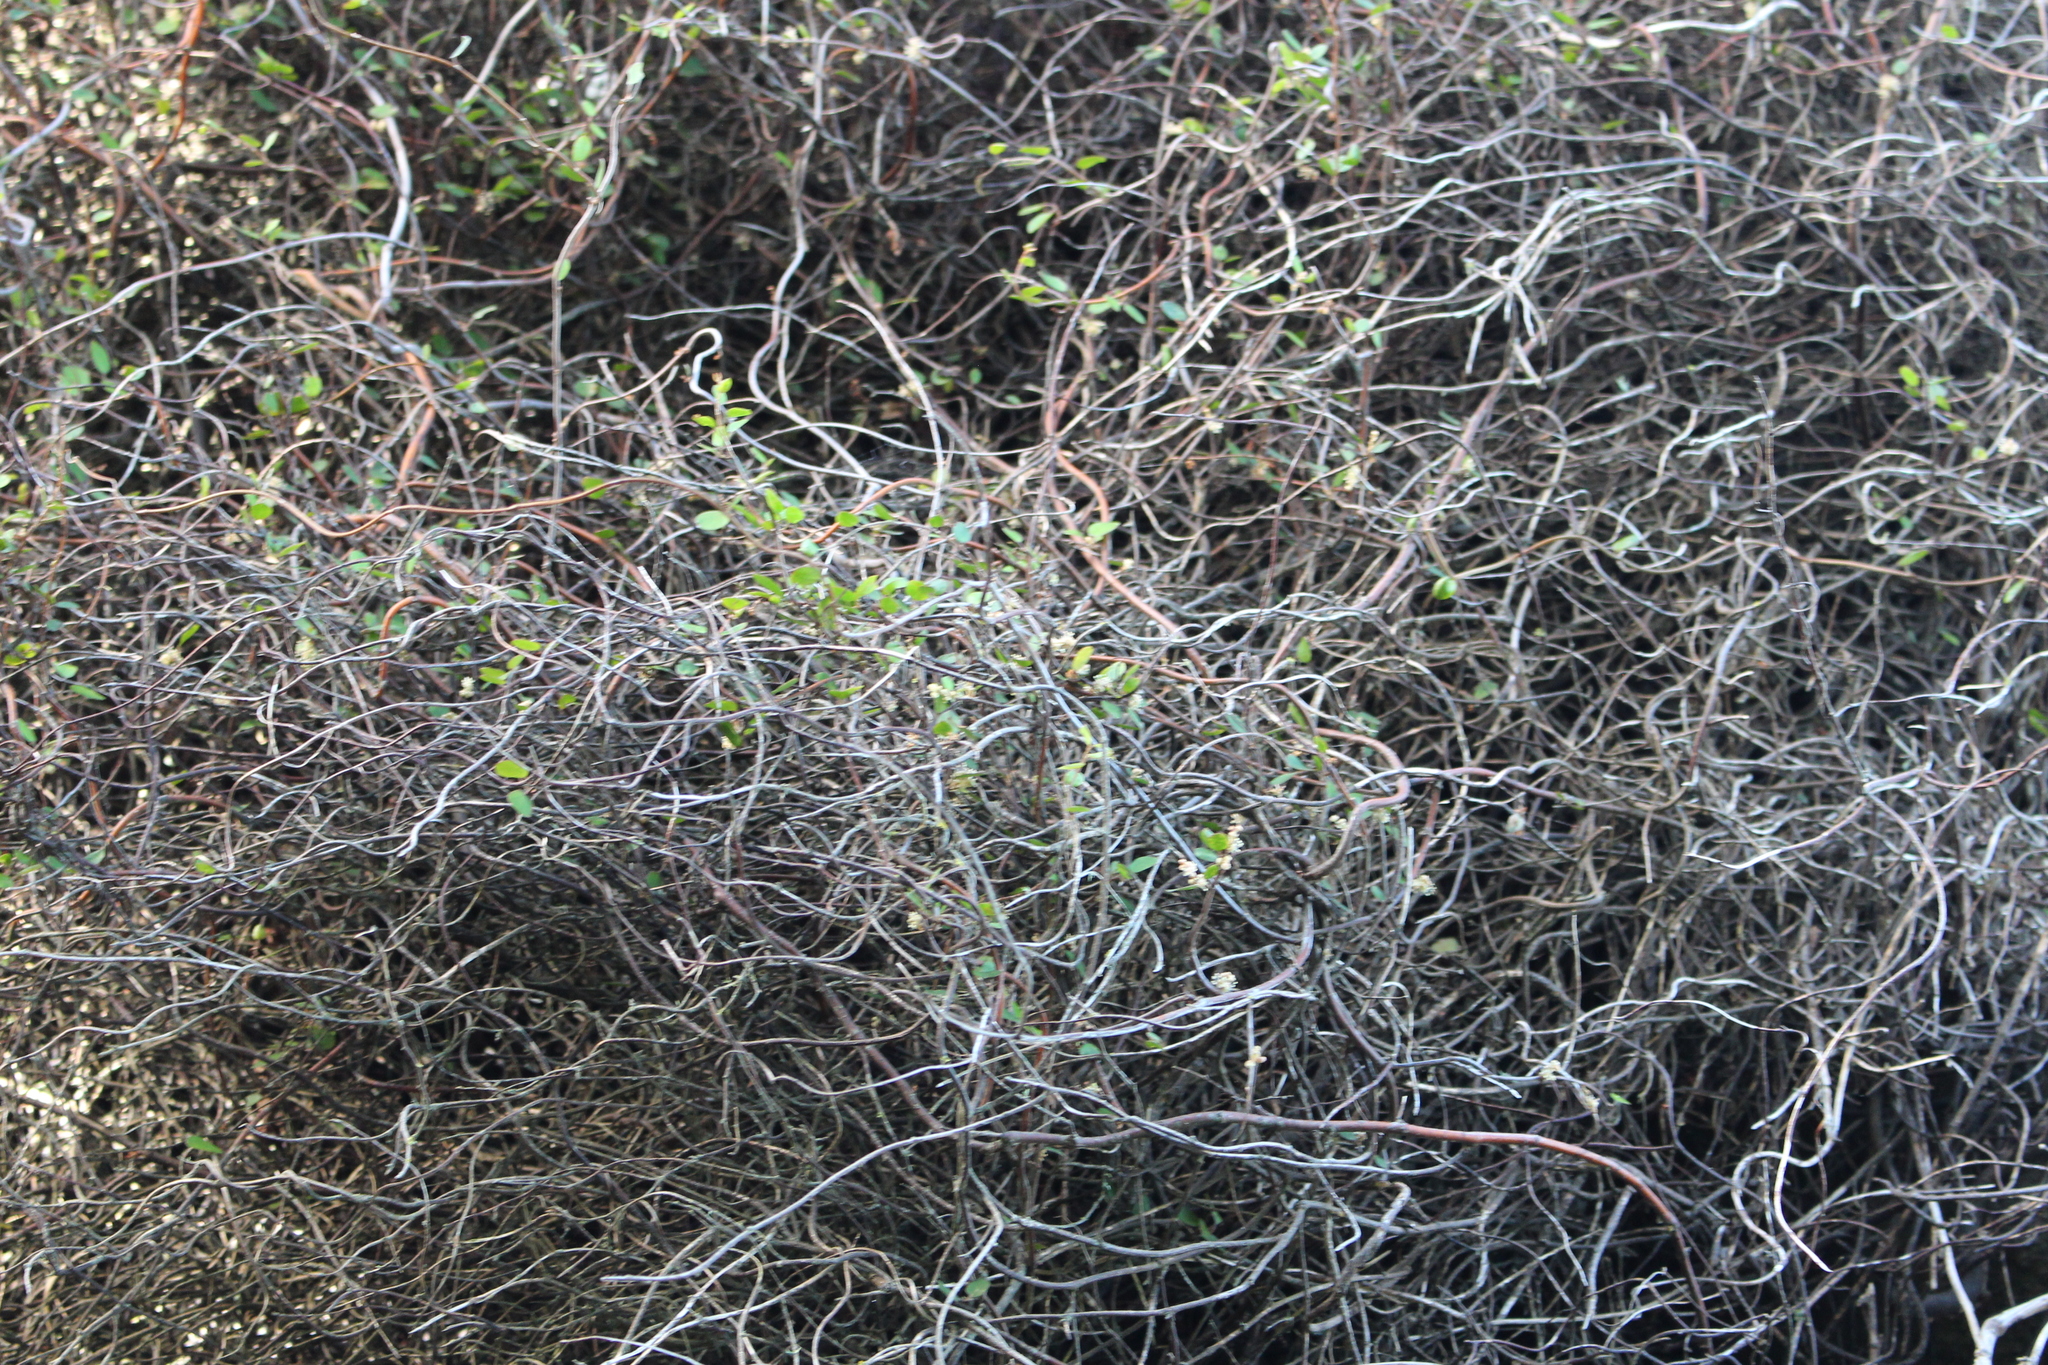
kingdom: Plantae
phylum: Tracheophyta
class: Magnoliopsida
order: Caryophyllales
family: Polygonaceae
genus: Muehlenbeckia
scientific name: Muehlenbeckia complexa
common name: Wireplant
